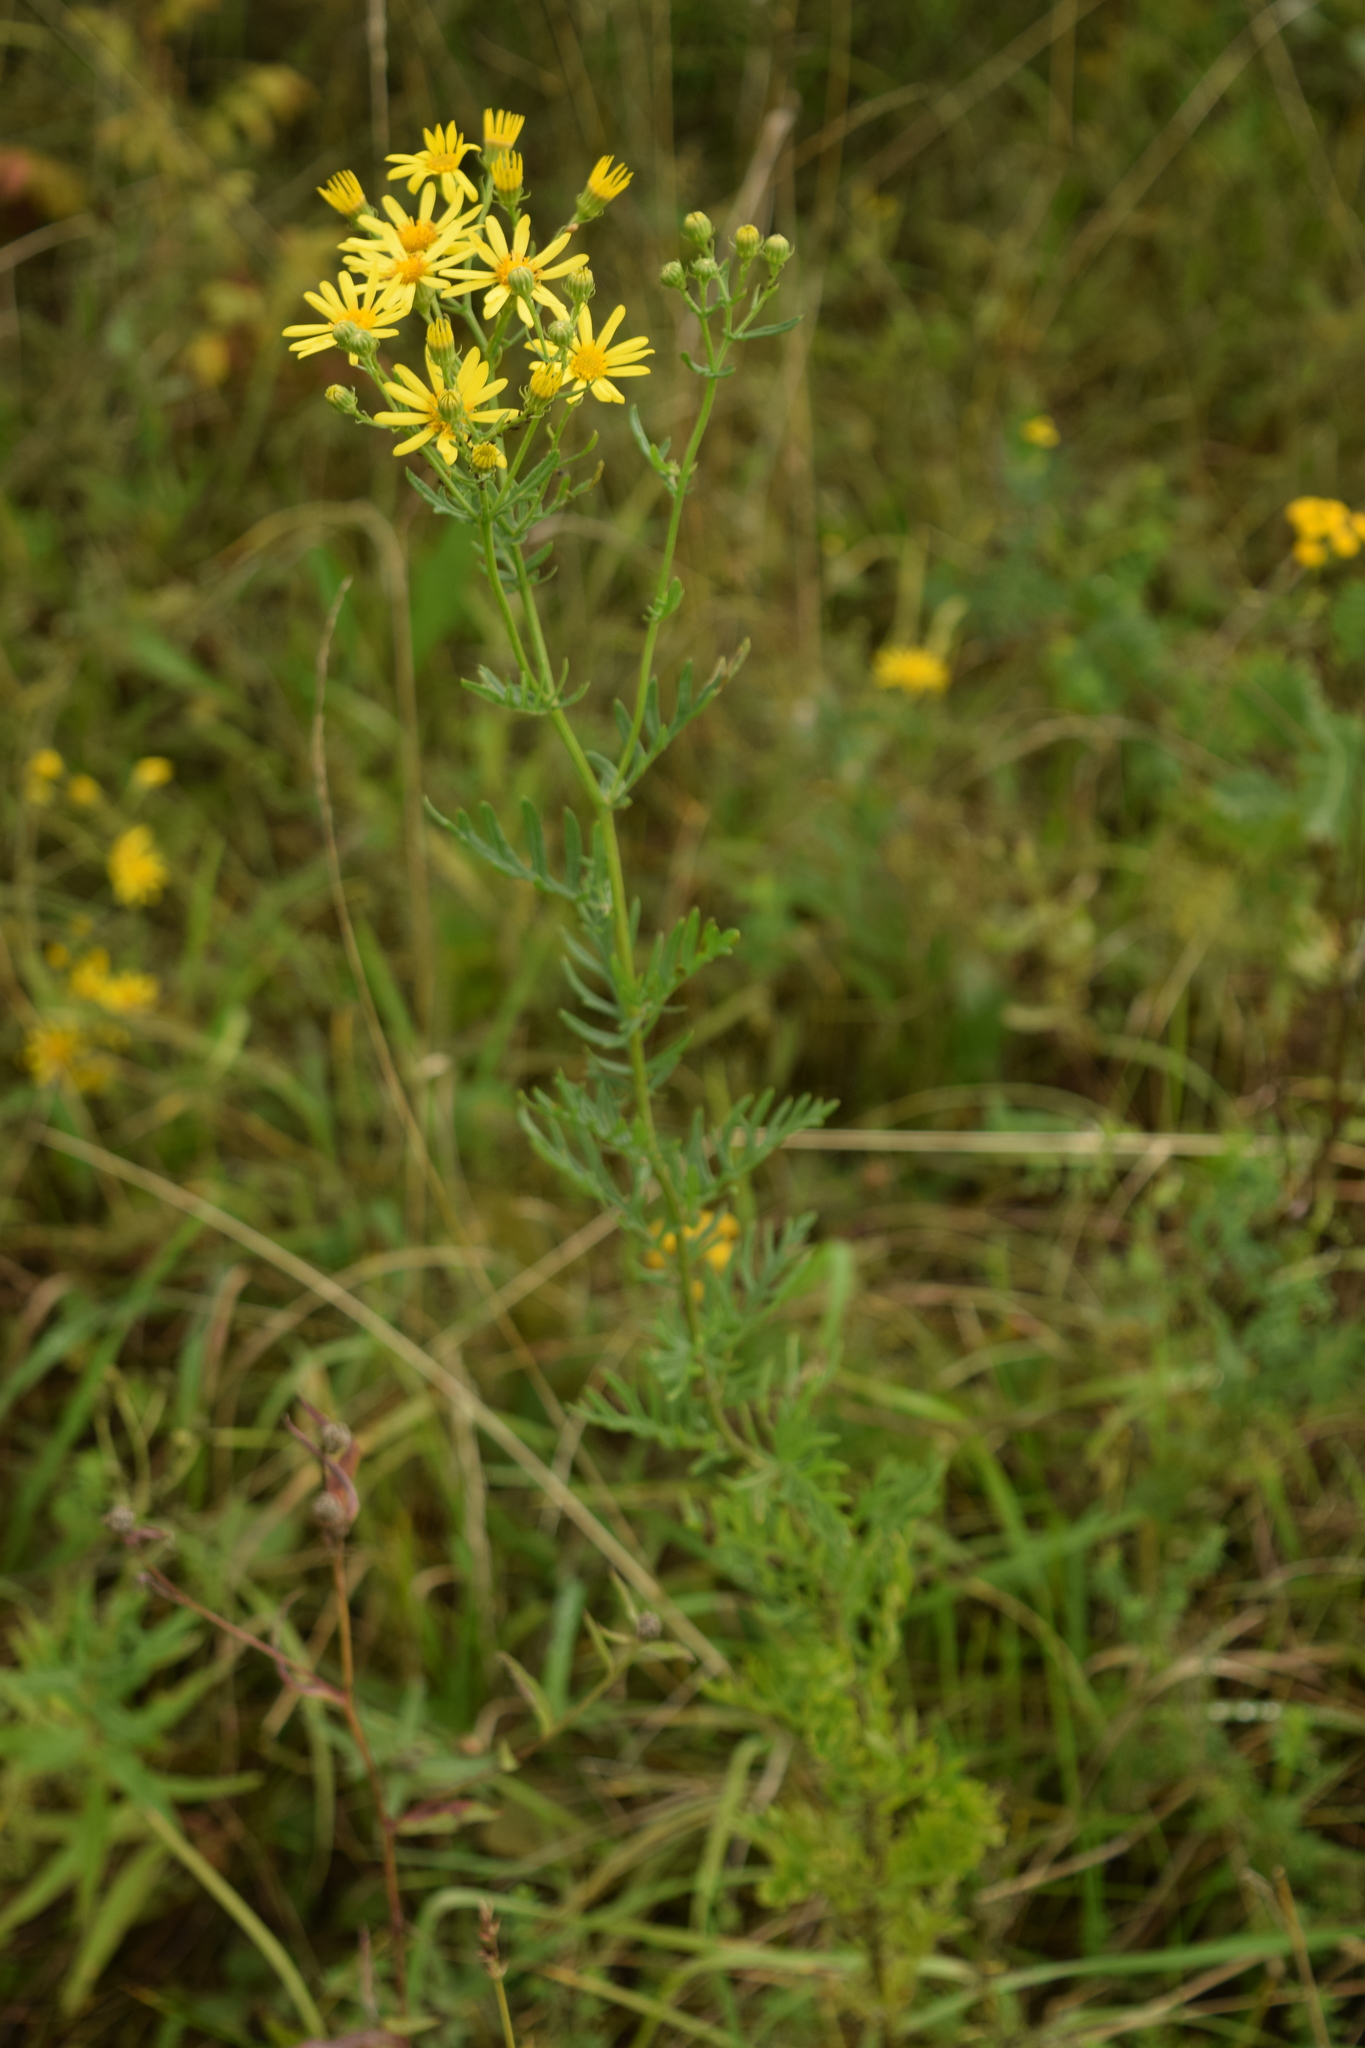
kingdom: Plantae
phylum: Tracheophyta
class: Magnoliopsida
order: Asterales
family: Asteraceae
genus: Jacobaea
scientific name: Jacobaea vulgaris
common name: Stinking willie
